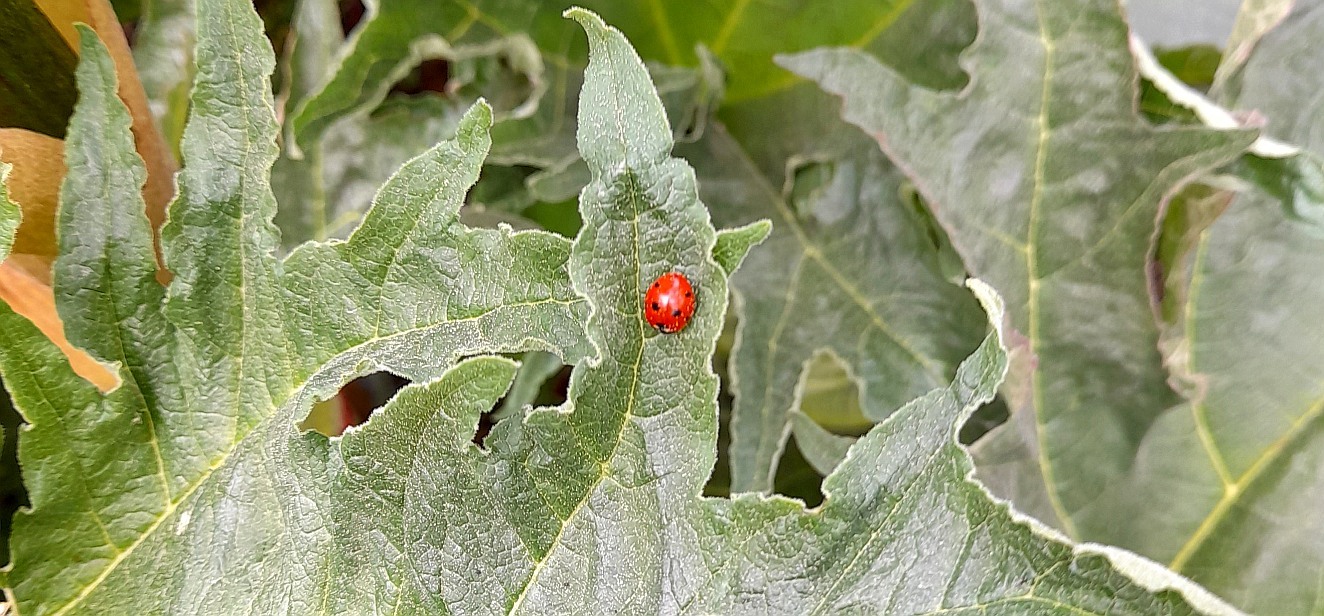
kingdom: Animalia
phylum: Arthropoda
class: Insecta
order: Coleoptera
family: Coccinellidae
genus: Coccinella
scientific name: Coccinella septempunctata
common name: Sevenspotted lady beetle
